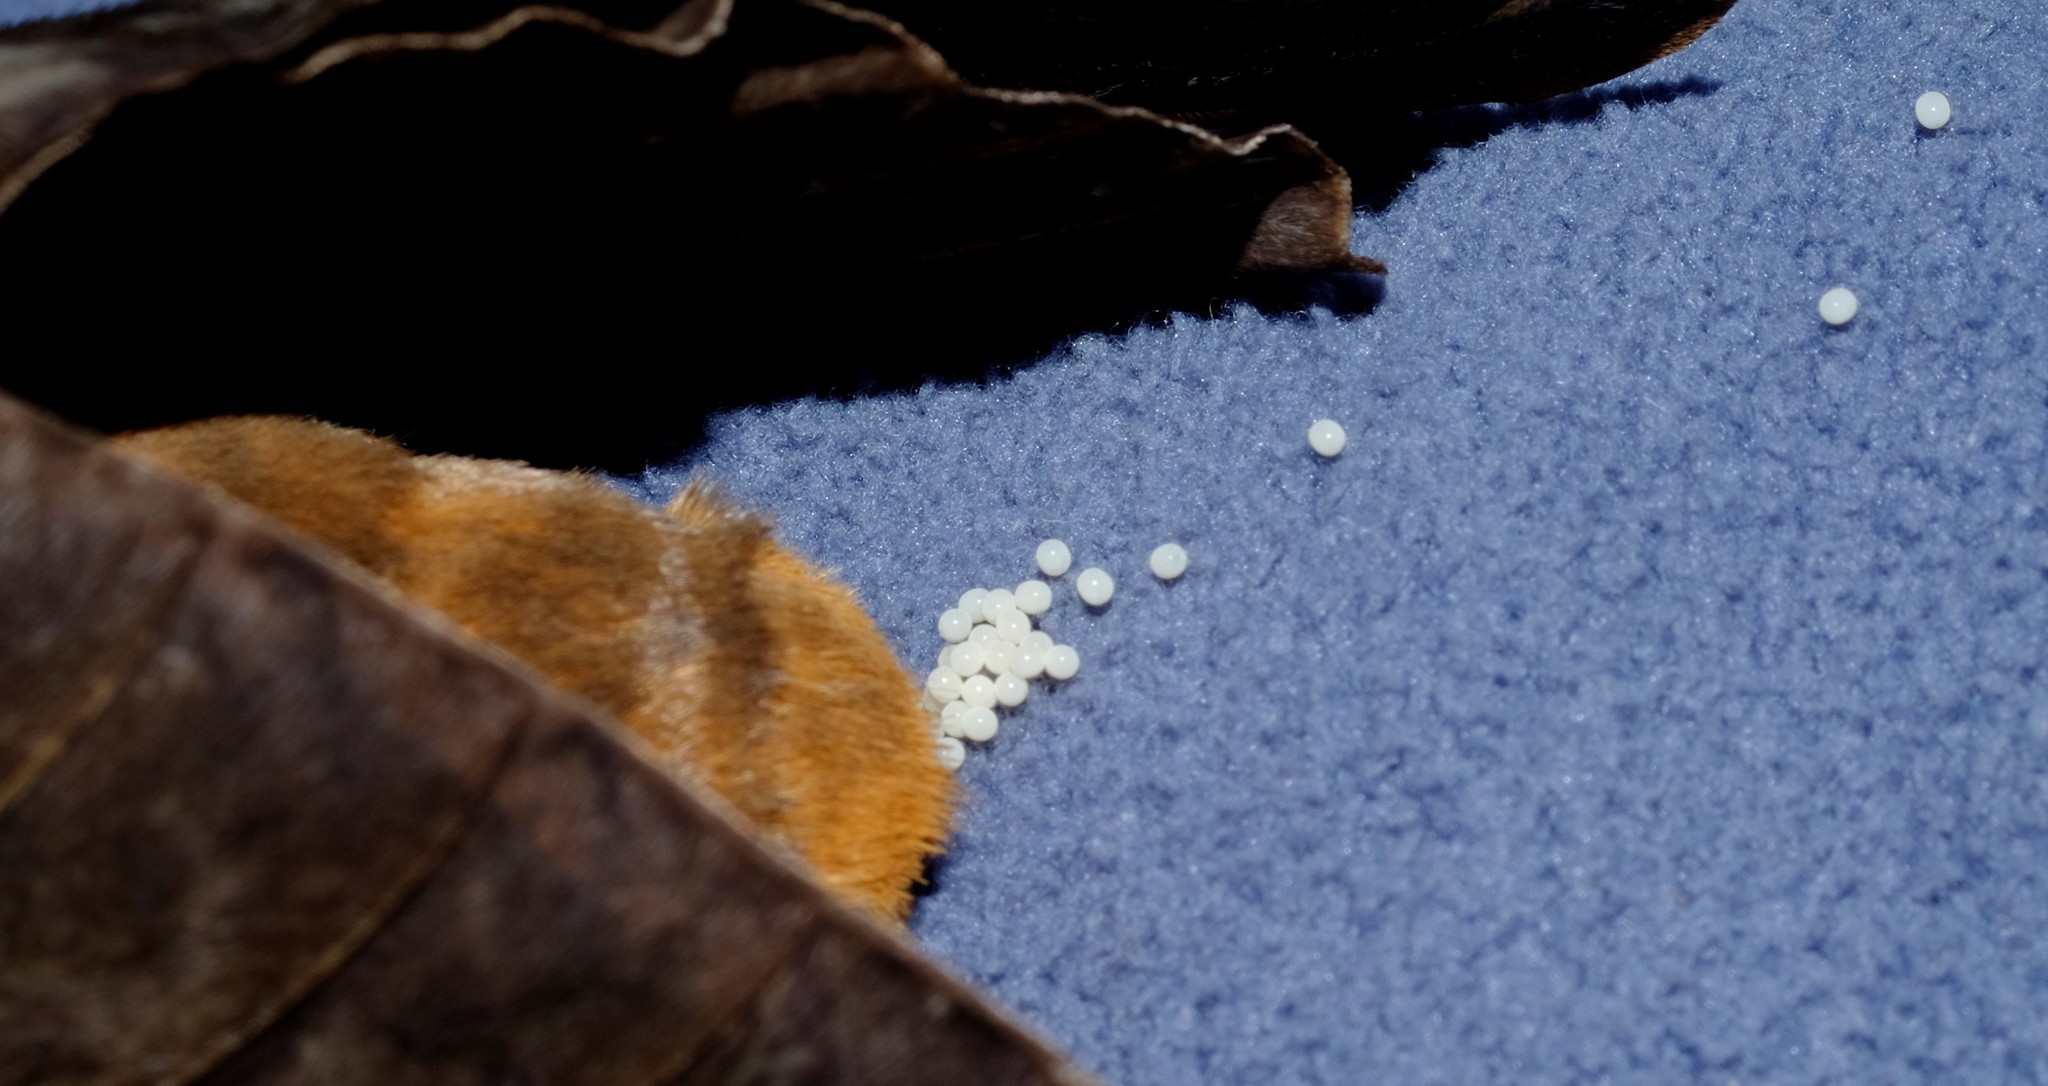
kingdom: Animalia
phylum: Arthropoda
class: Insecta
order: Lepidoptera
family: Hepialidae
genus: Abantiades
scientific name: Abantiades atripalpis
